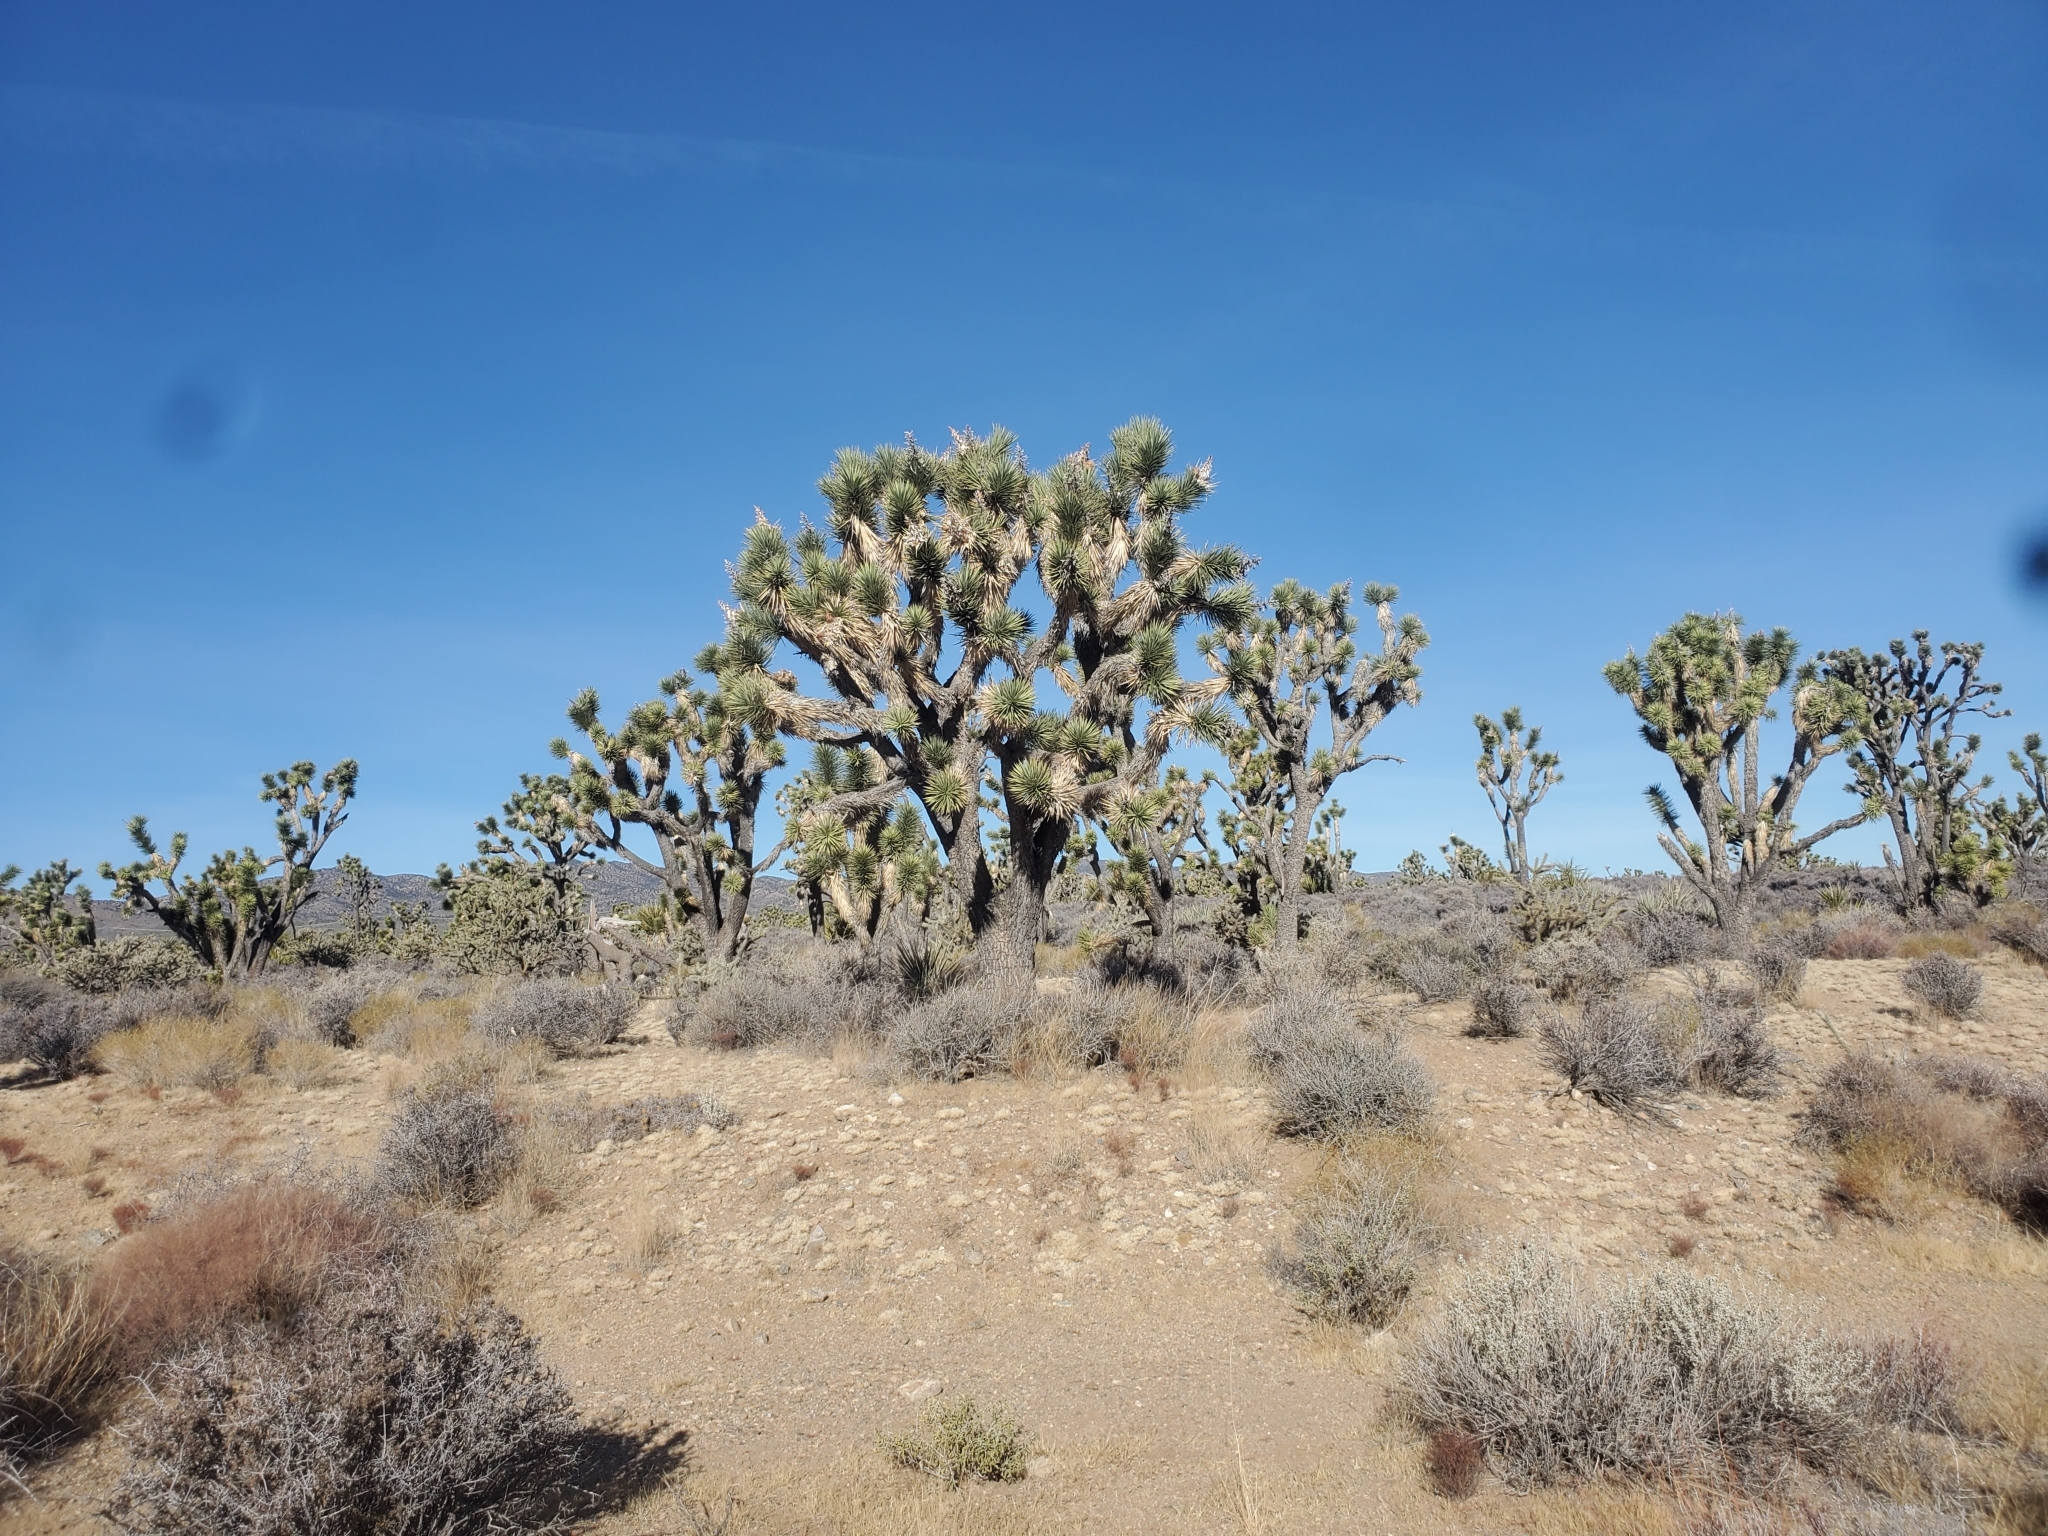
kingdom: Plantae
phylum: Tracheophyta
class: Liliopsida
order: Asparagales
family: Asparagaceae
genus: Yucca
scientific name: Yucca brevifolia
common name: Joshua tree
